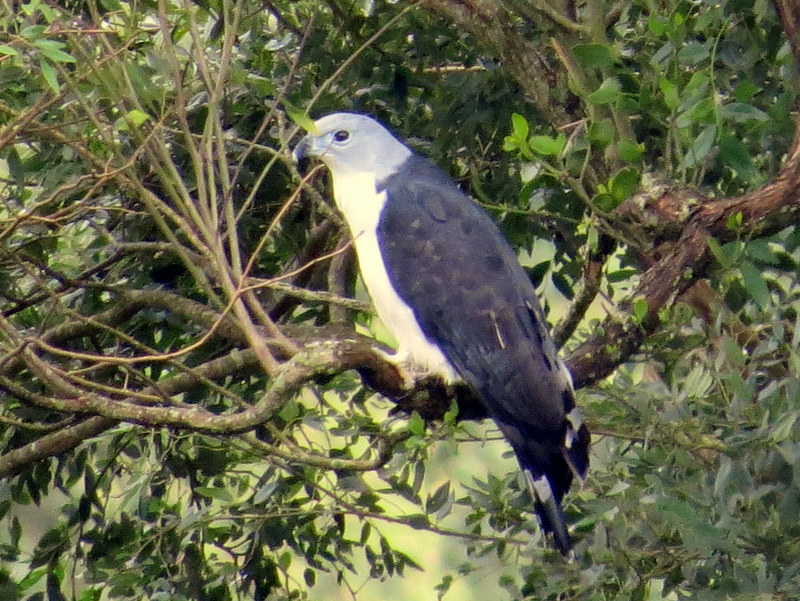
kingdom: Animalia
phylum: Chordata
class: Aves
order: Accipitriformes
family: Accipitridae
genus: Leptodon
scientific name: Leptodon cayanensis
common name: Gray-headed kite
